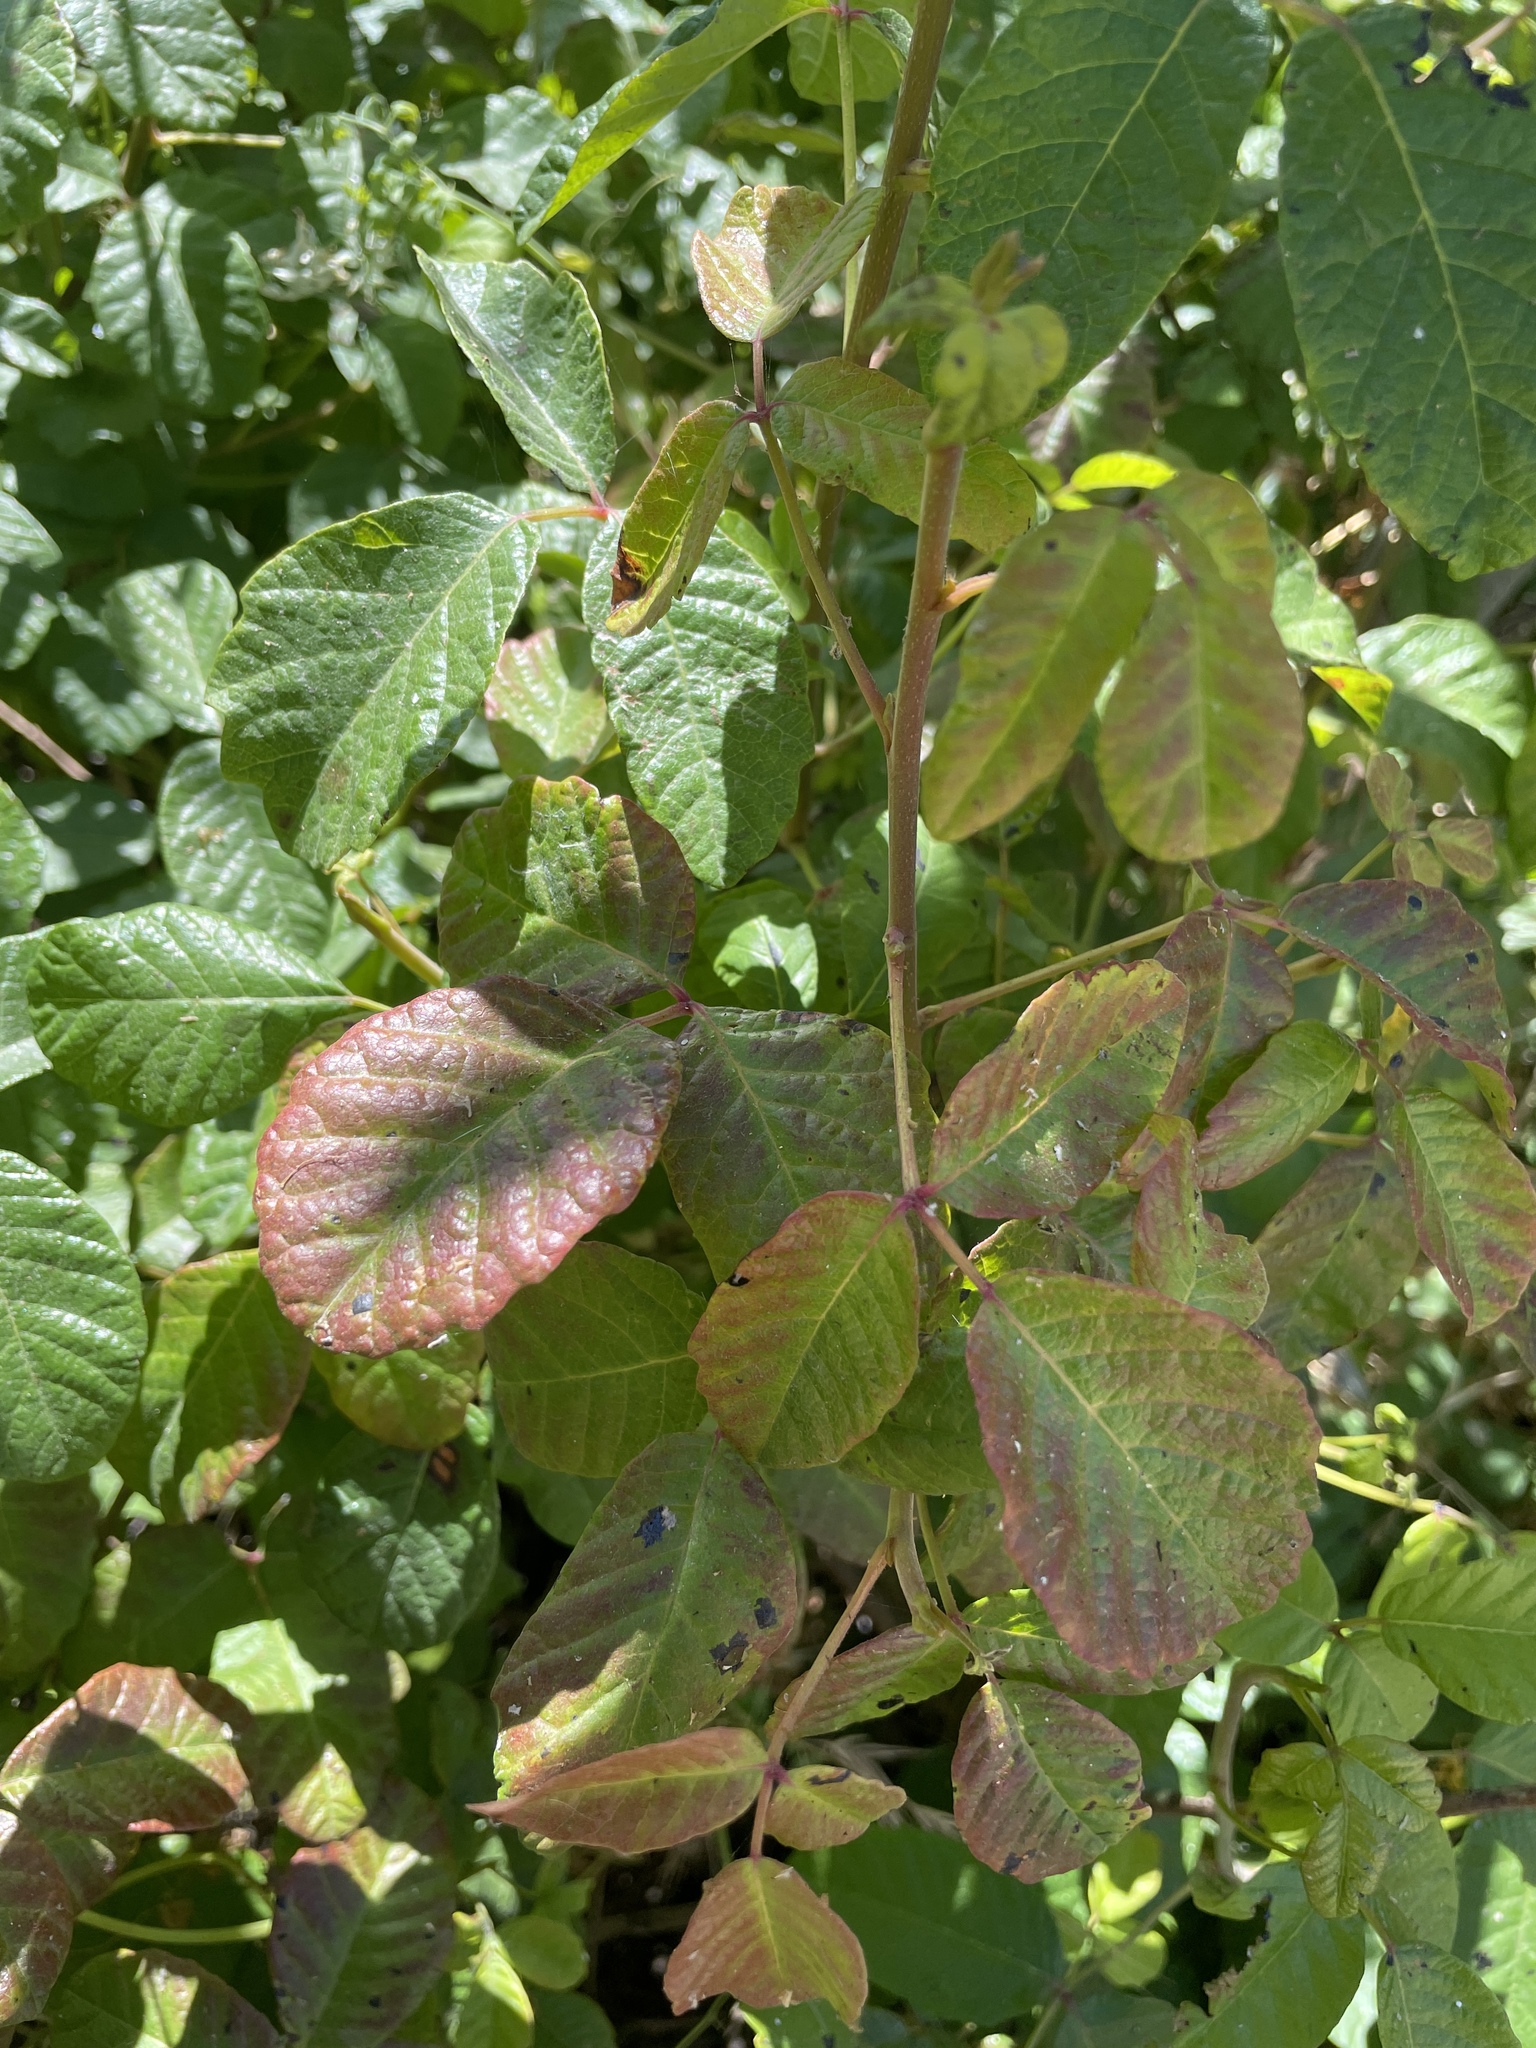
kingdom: Plantae
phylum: Tracheophyta
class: Magnoliopsida
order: Sapindales
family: Anacardiaceae
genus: Toxicodendron
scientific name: Toxicodendron diversilobum
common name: Pacific poison-oak
